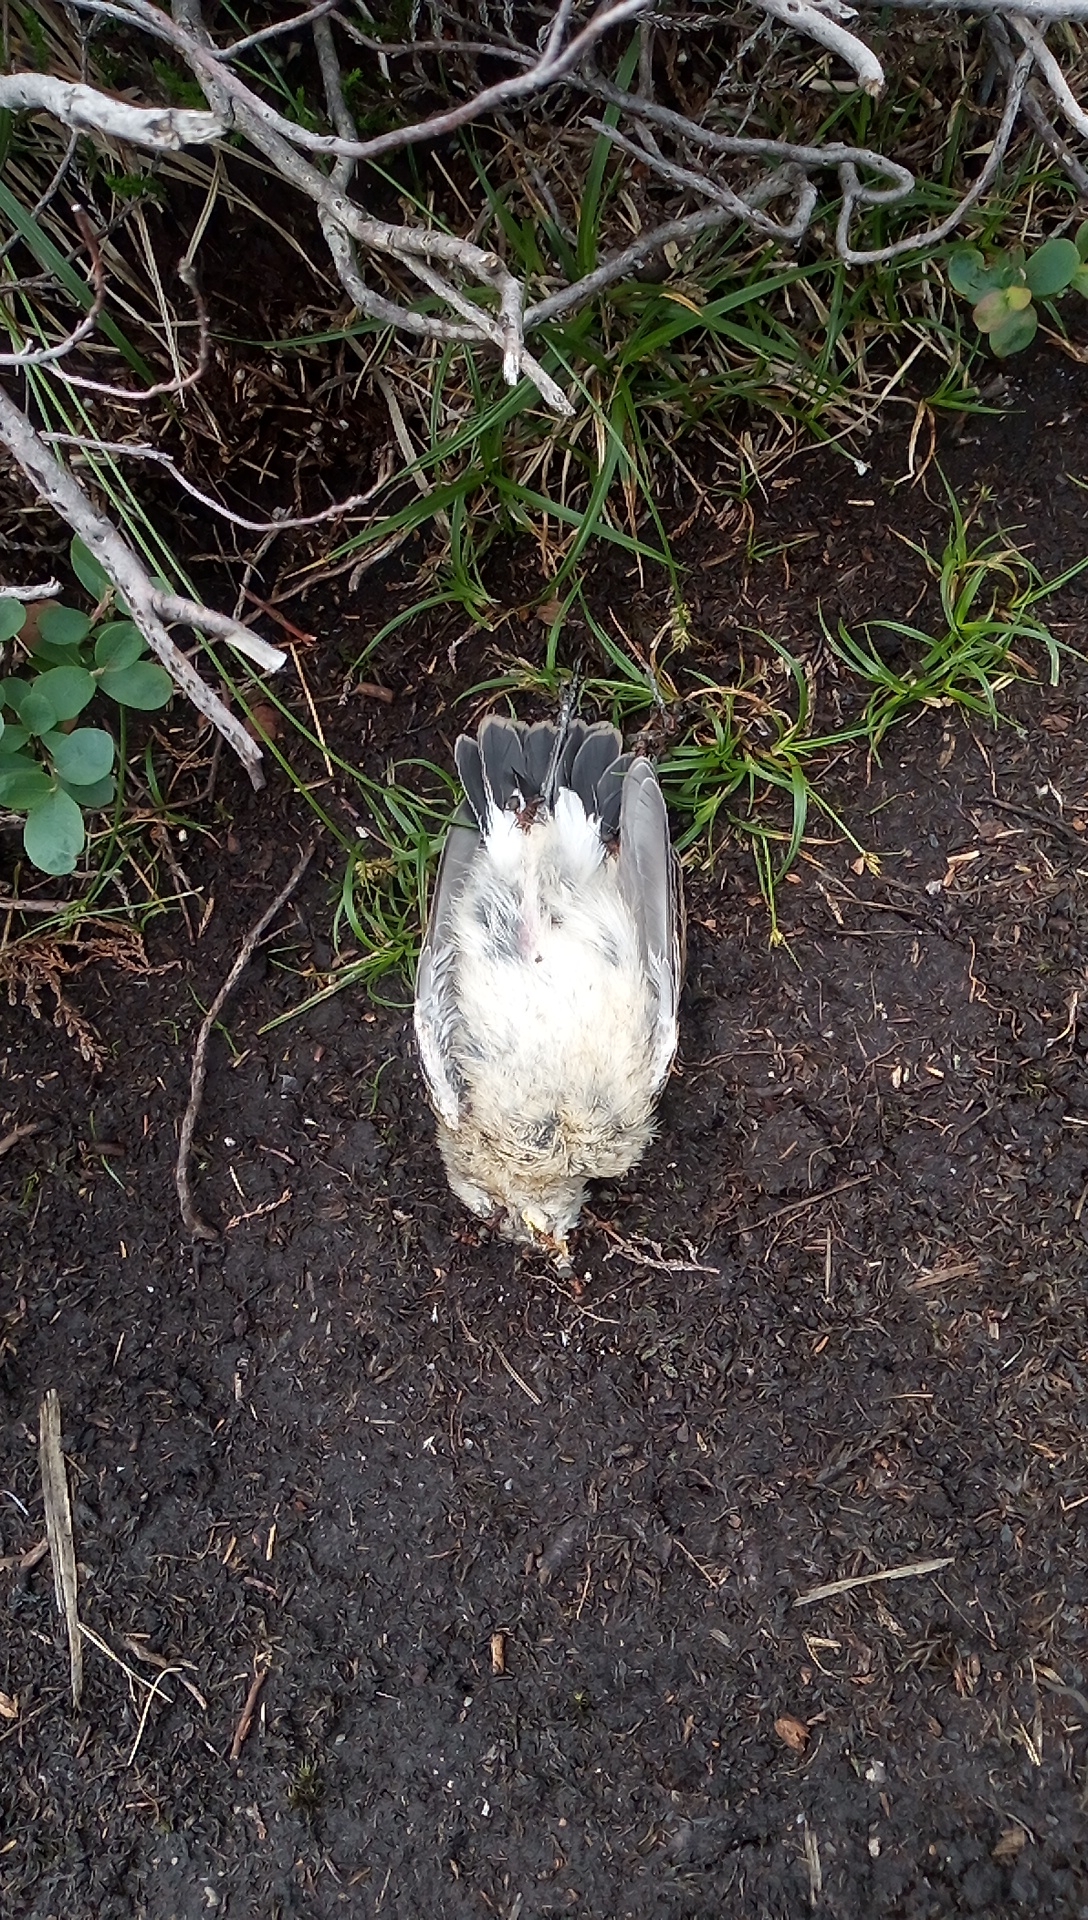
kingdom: Animalia
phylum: Chordata
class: Aves
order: Passeriformes
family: Passeridae
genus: Passer
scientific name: Passer domesticus
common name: House sparrow
